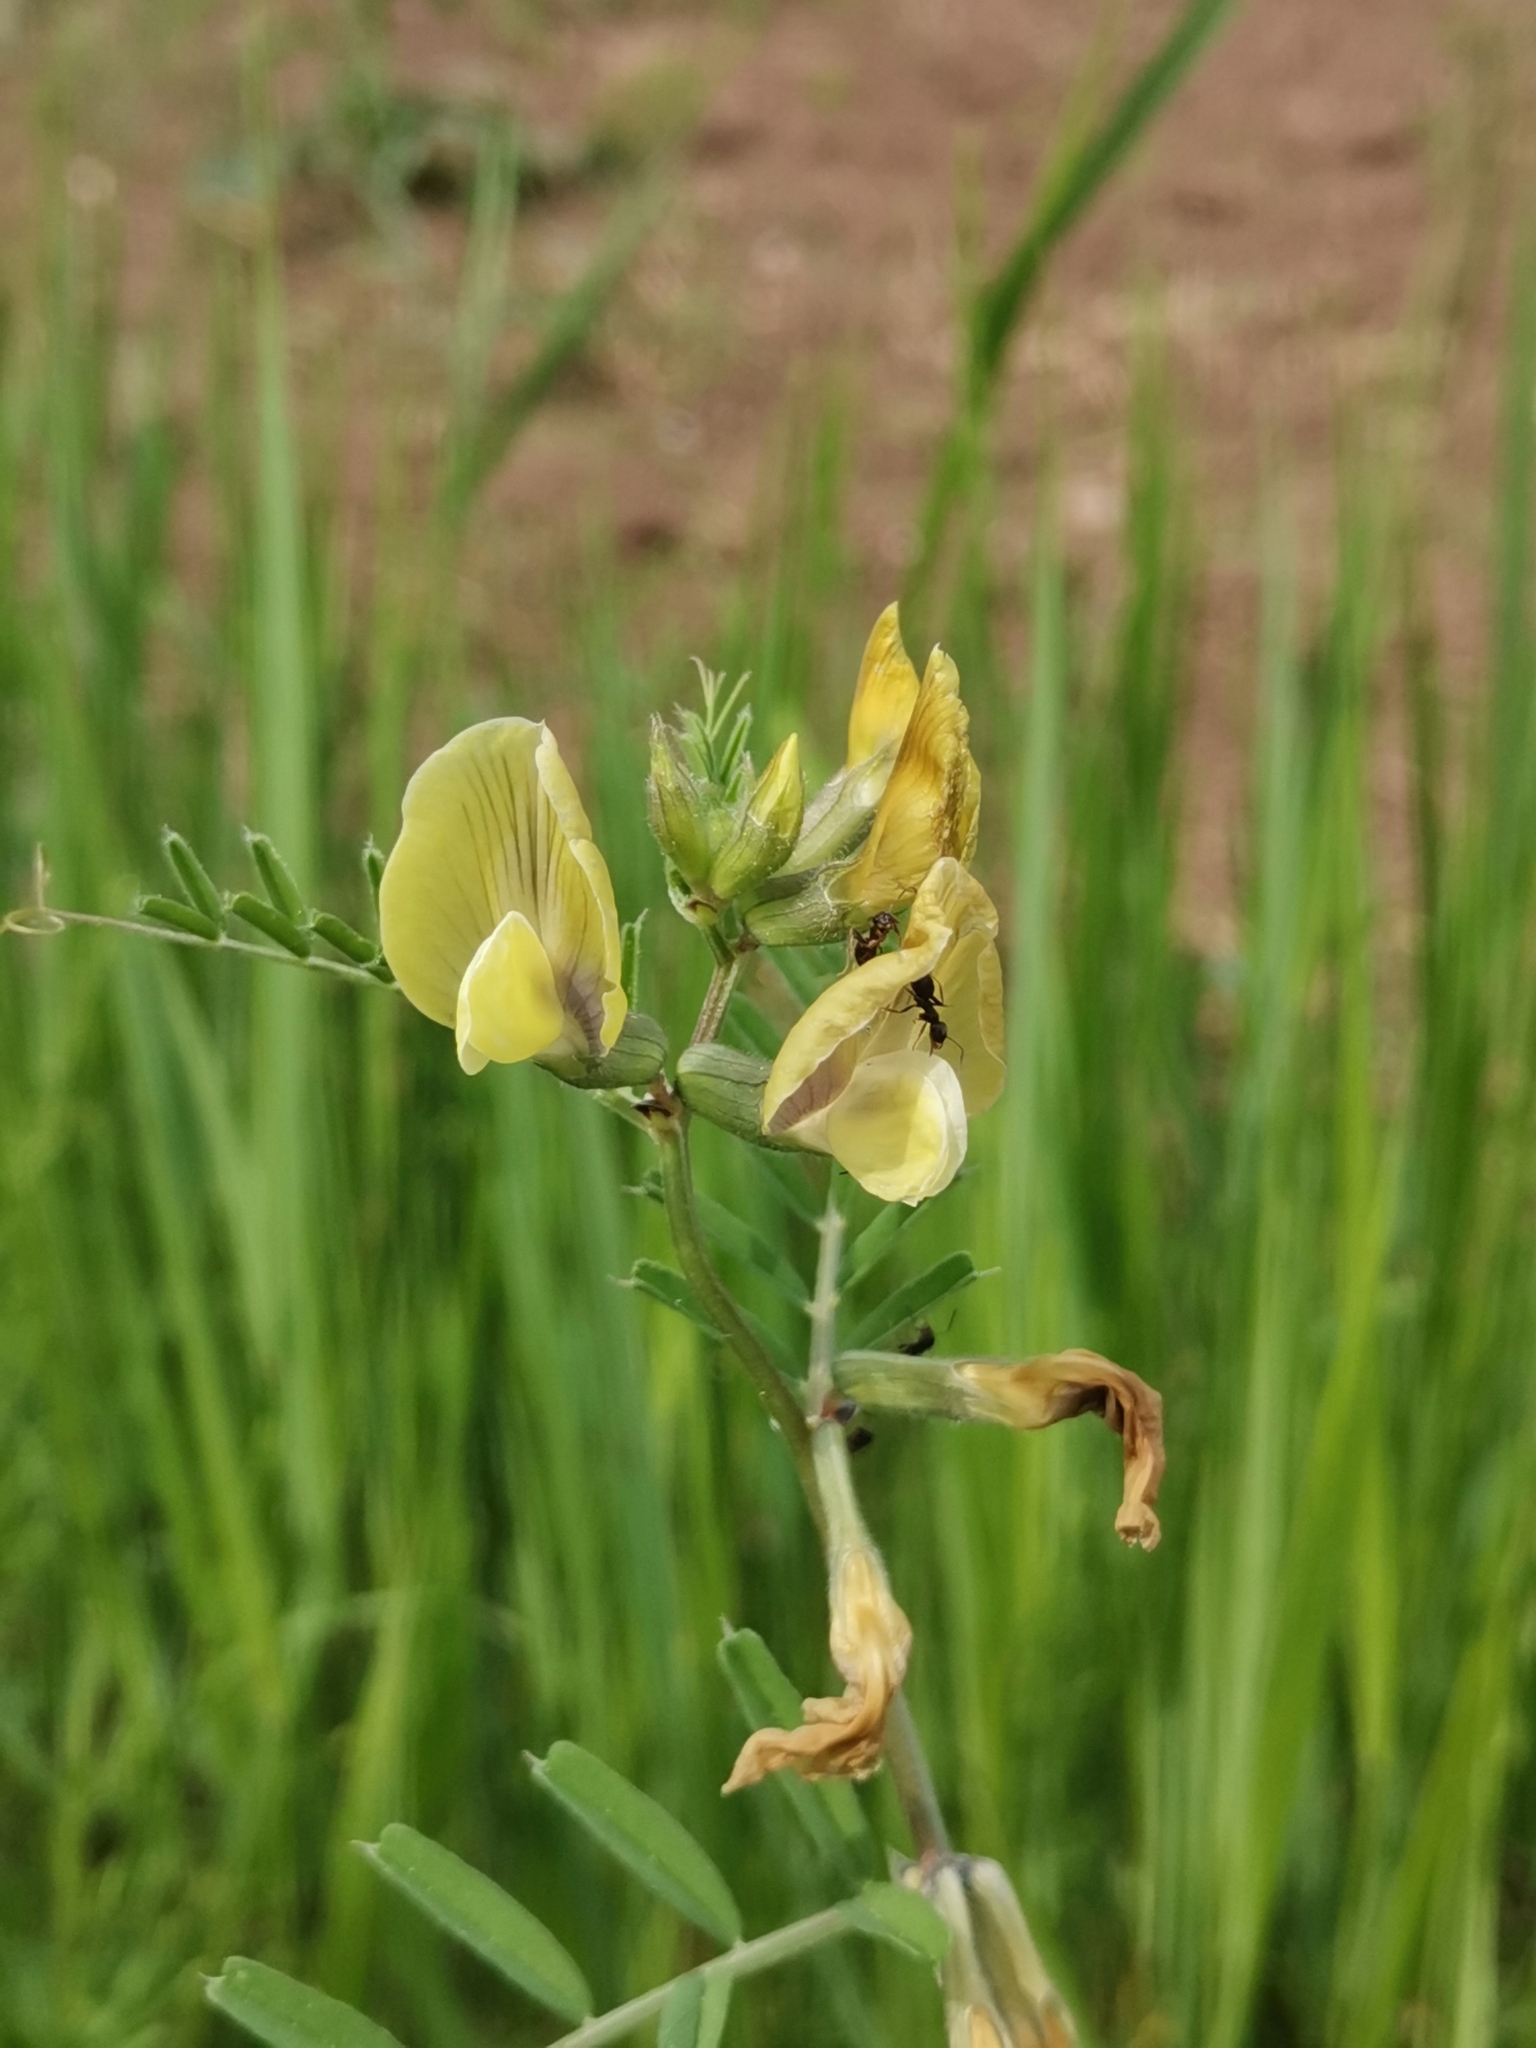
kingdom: Plantae
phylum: Tracheophyta
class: Magnoliopsida
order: Fabales
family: Fabaceae
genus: Vicia
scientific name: Vicia grandiflora
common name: Large yellow vetch
